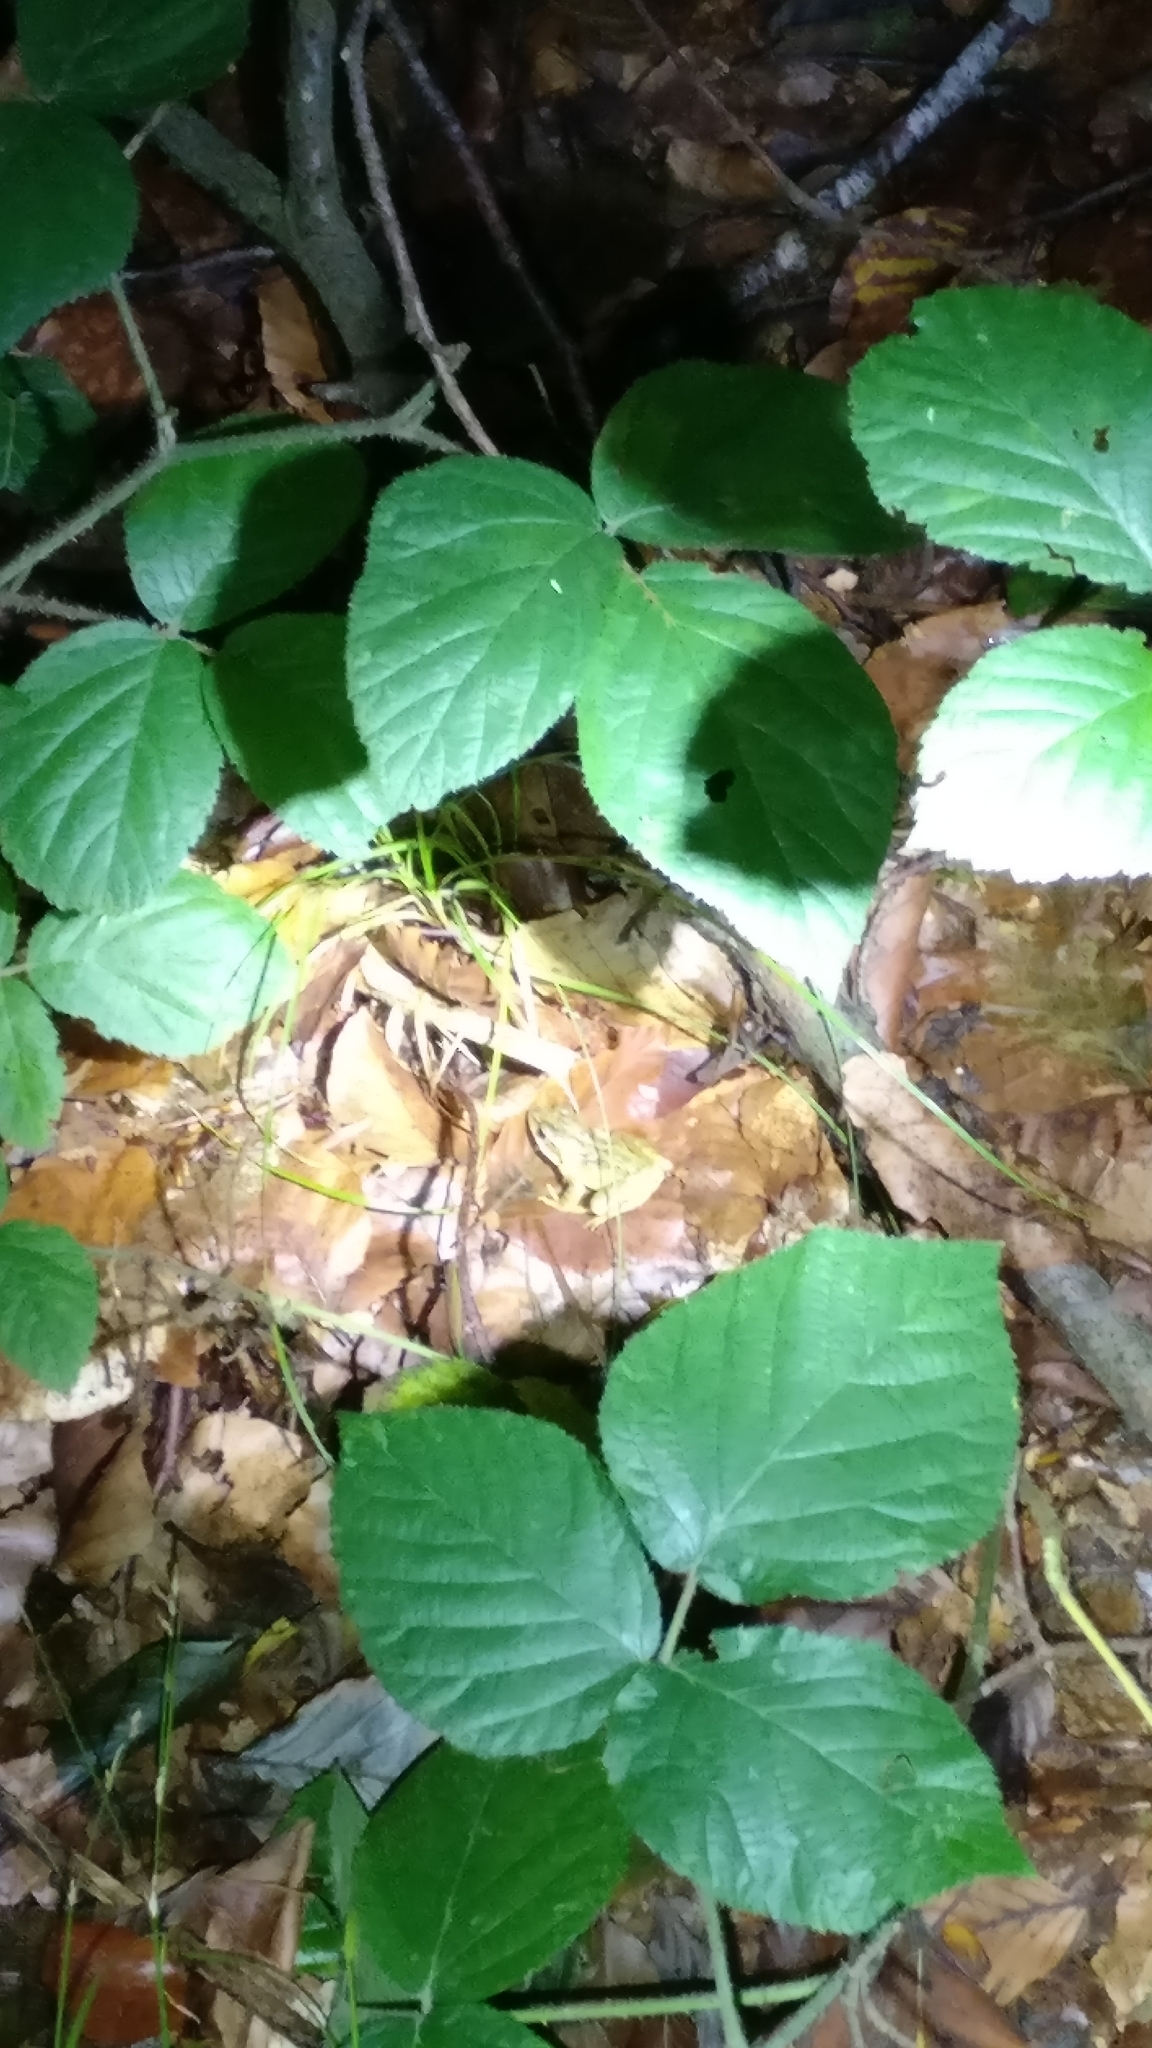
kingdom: Animalia
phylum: Chordata
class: Amphibia
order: Anura
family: Ranidae
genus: Rana
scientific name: Rana temporaria
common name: Common frog
